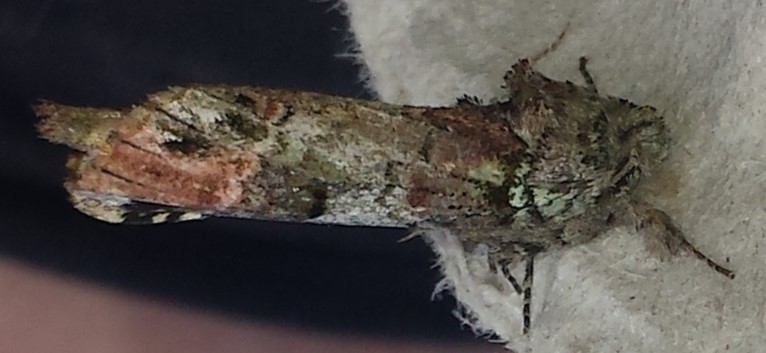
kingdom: Animalia
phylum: Arthropoda
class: Insecta
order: Lepidoptera
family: Notodontidae
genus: Schizura
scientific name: Schizura
